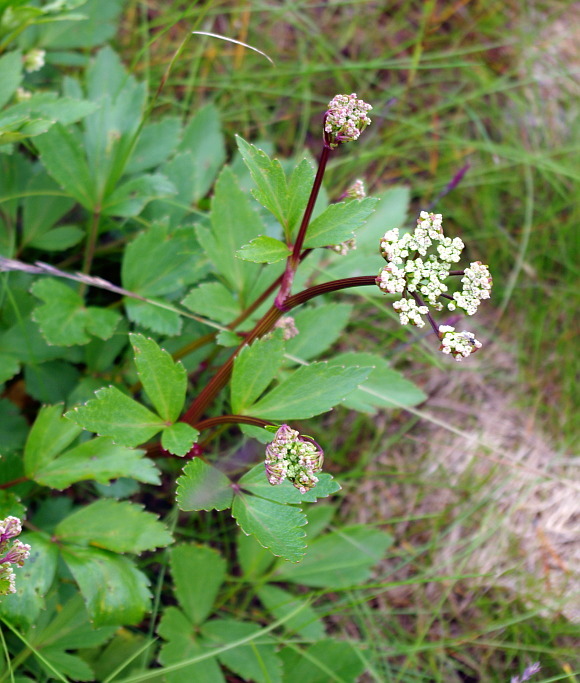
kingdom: Plantae
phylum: Tracheophyta
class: Magnoliopsida
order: Apiales
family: Apiaceae
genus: Ligusticum
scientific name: Ligusticum scothicum
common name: Beach lovage
